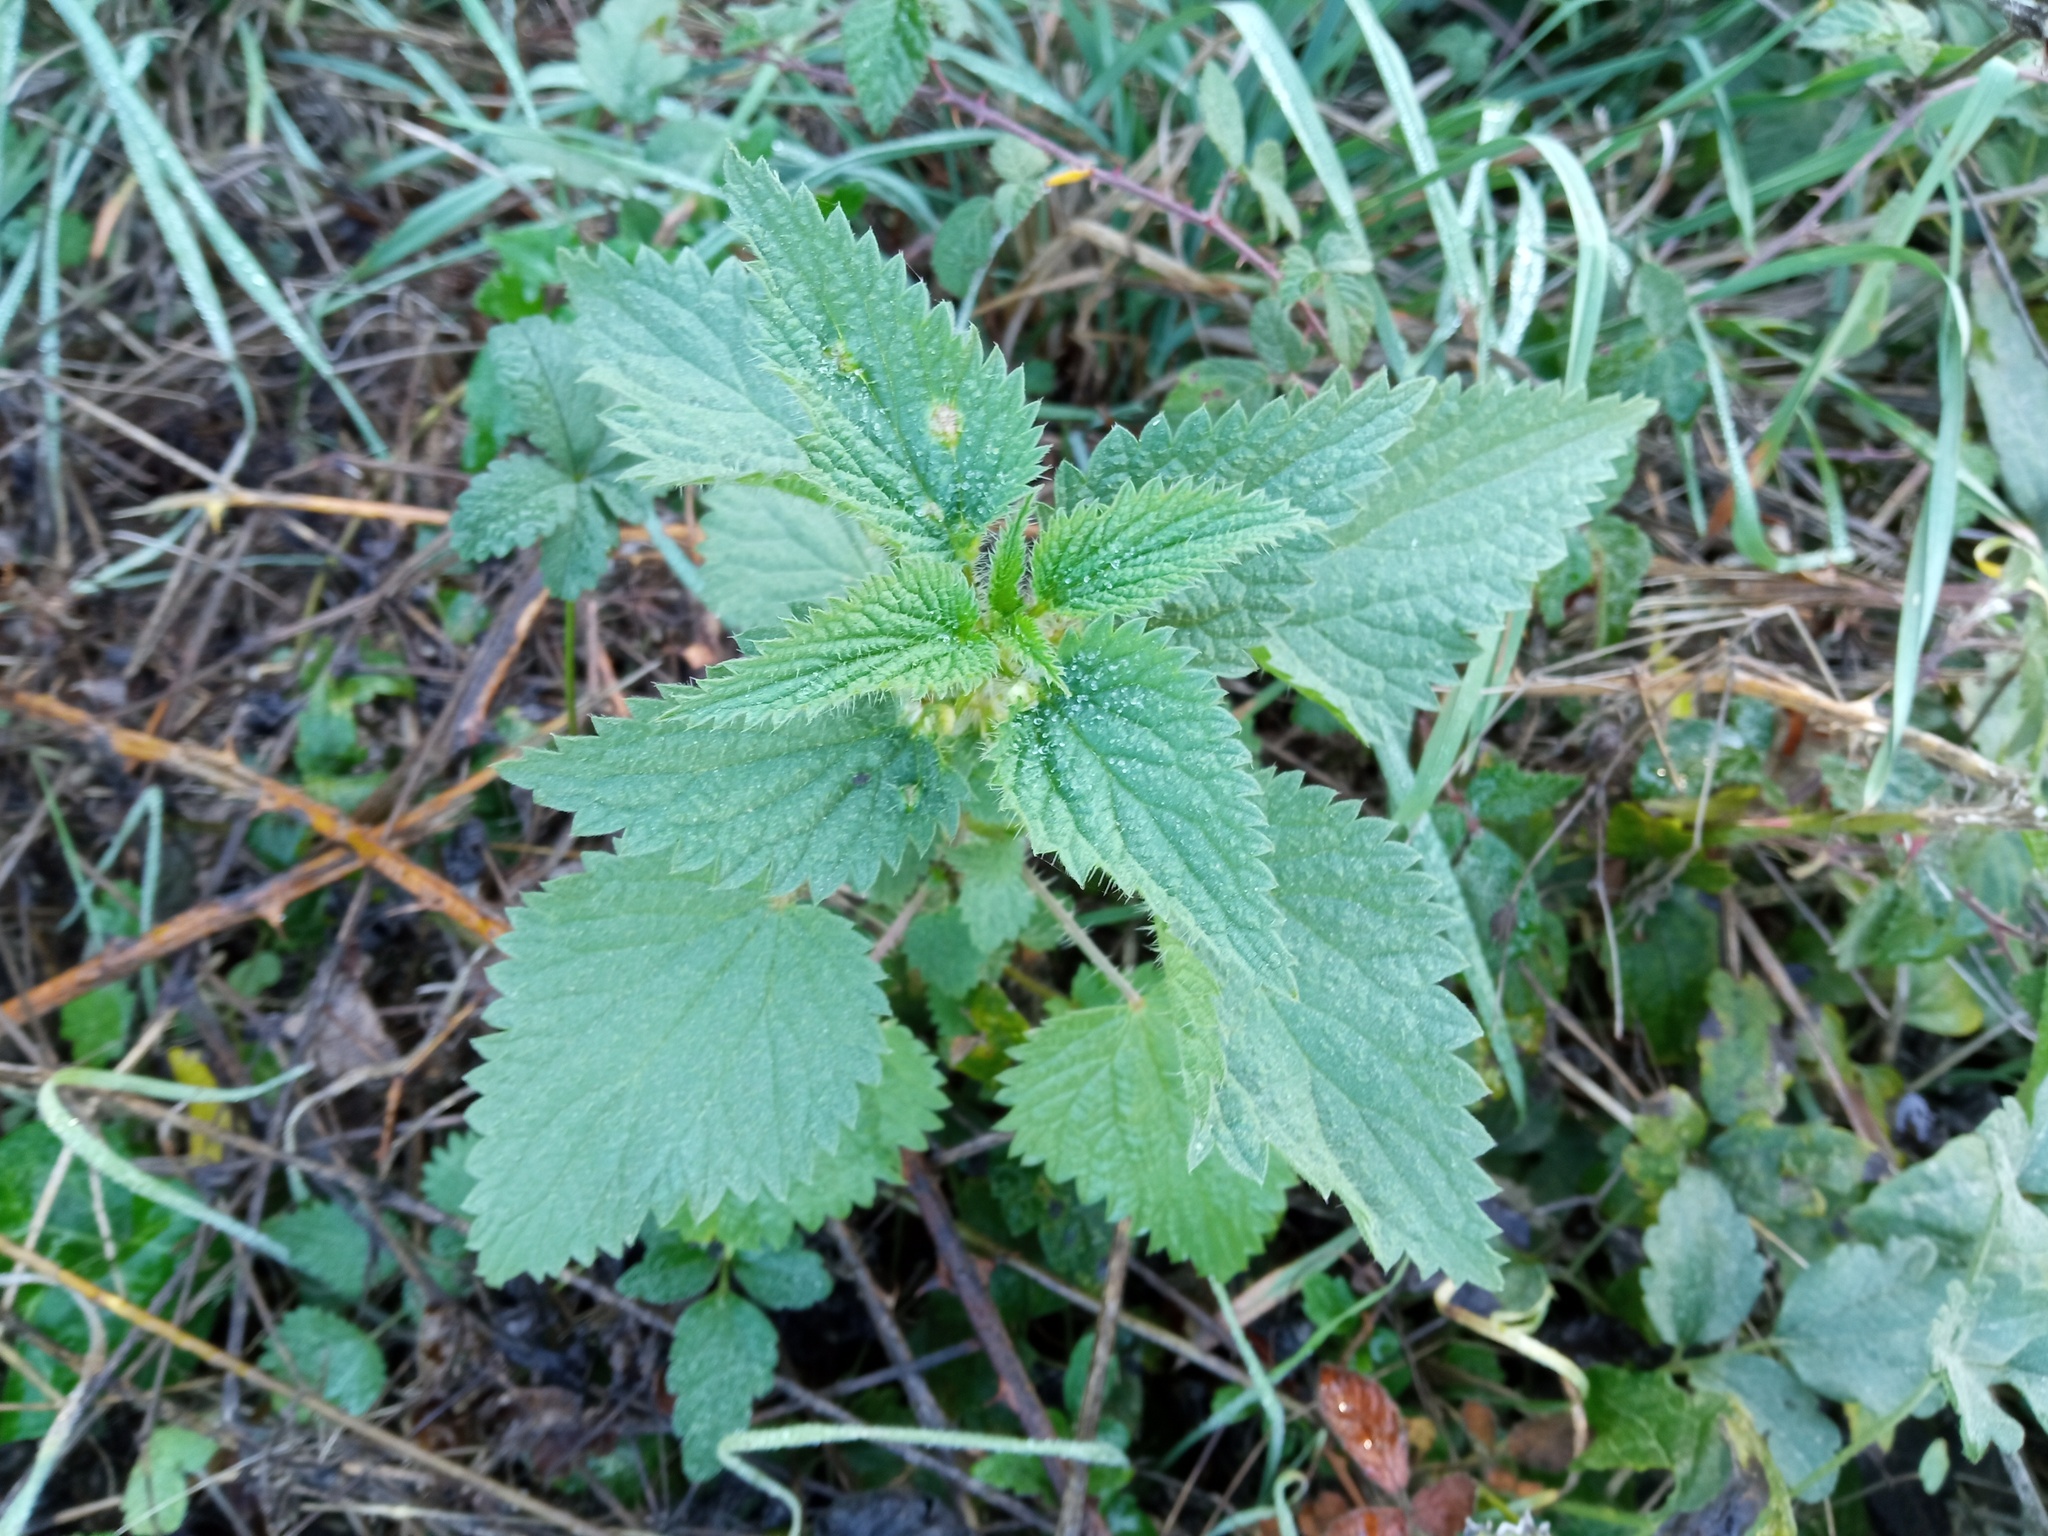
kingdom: Plantae
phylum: Tracheophyta
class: Magnoliopsida
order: Rosales
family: Urticaceae
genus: Urtica
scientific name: Urtica dioica
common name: Common nettle
